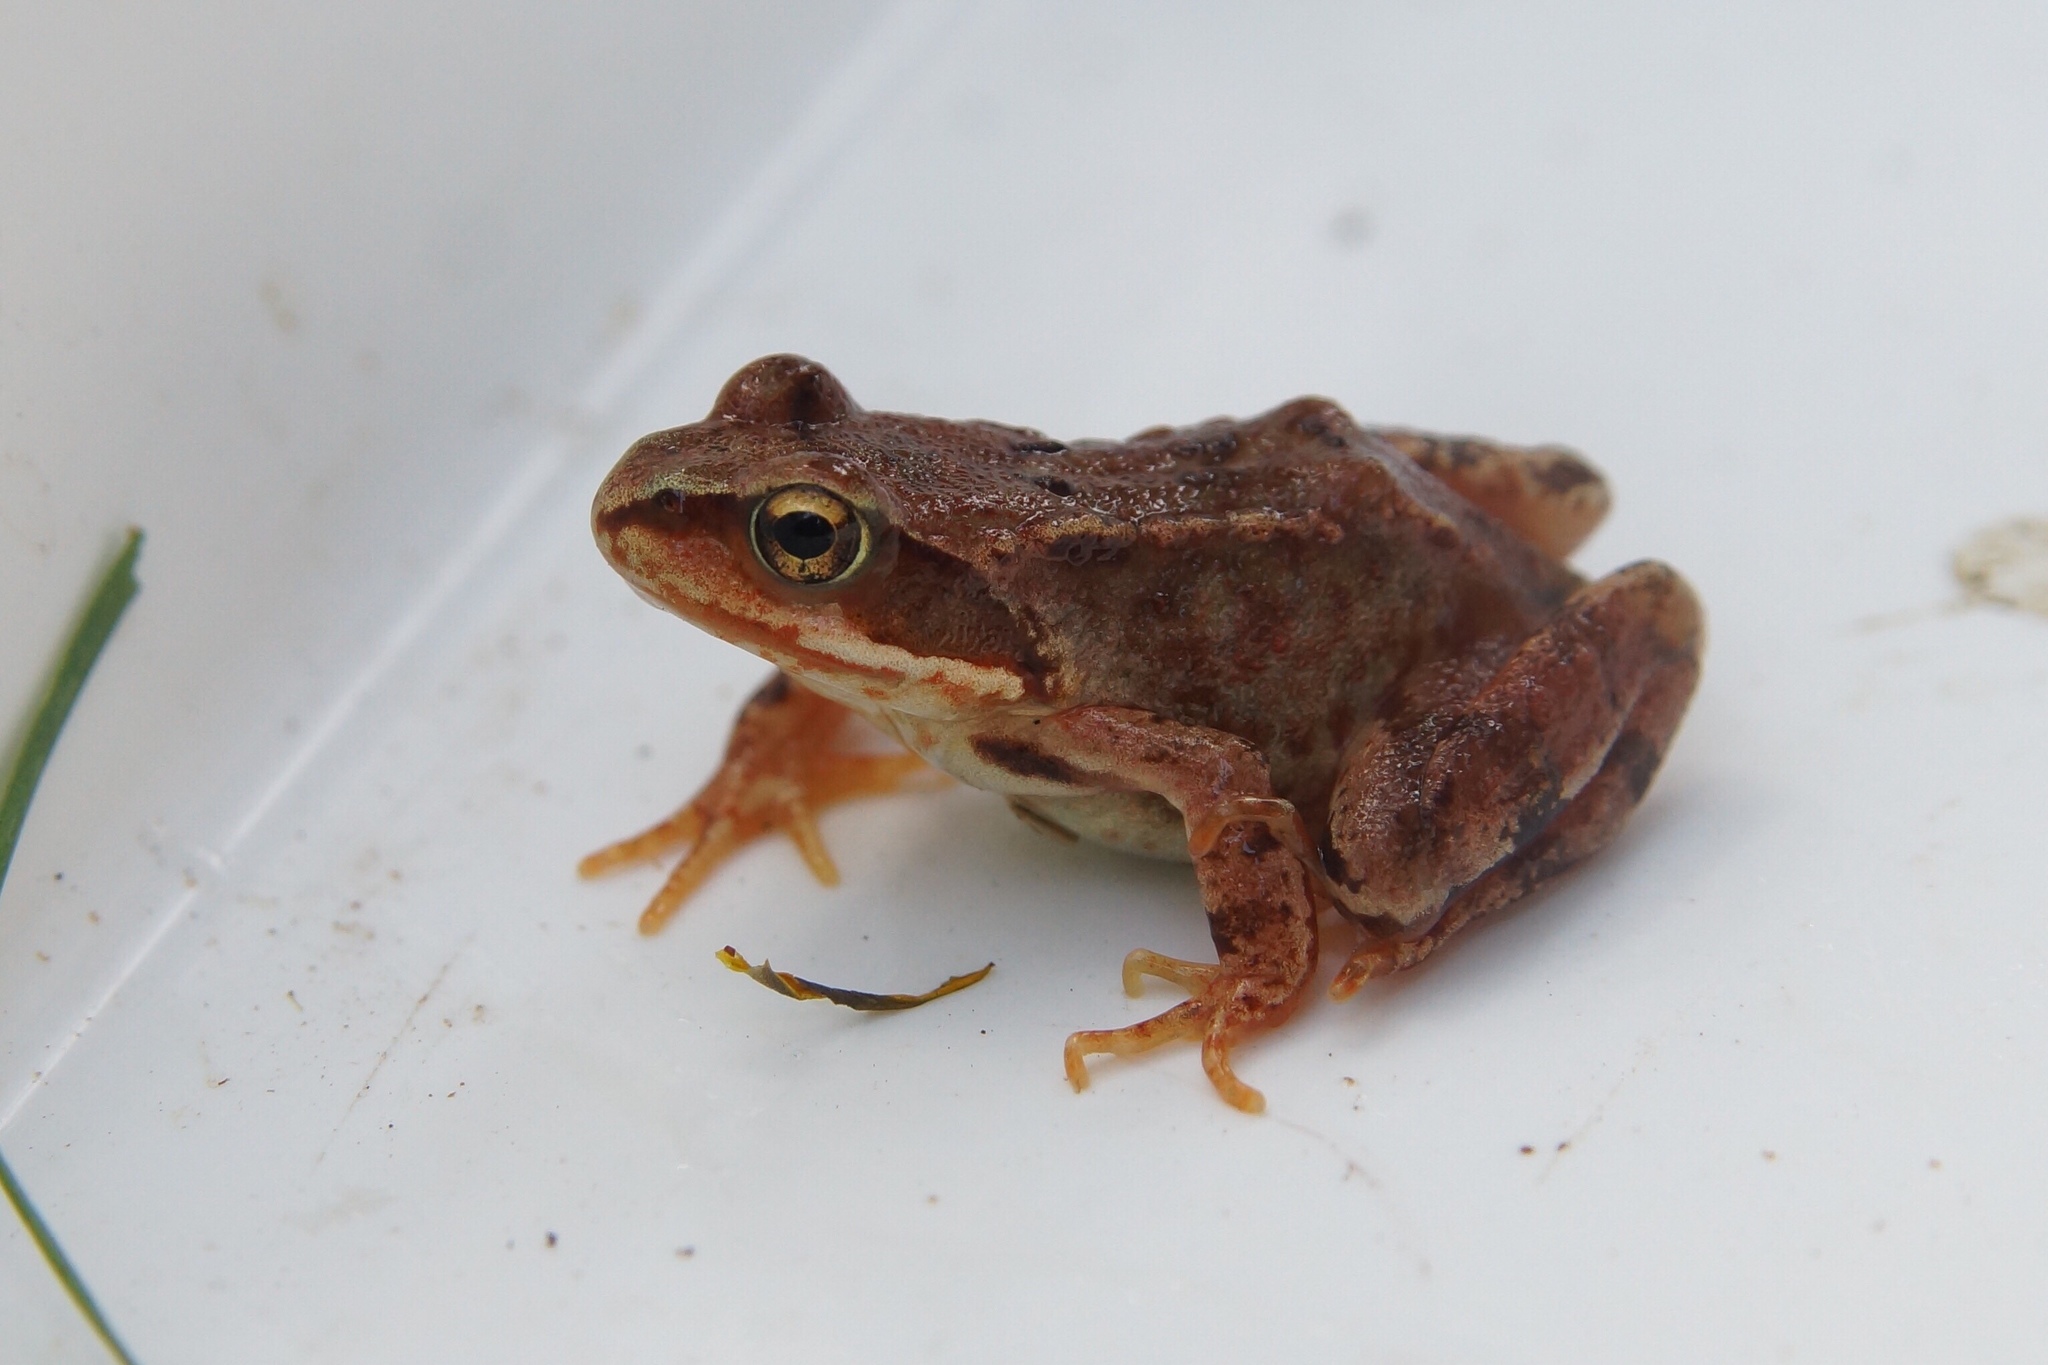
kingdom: Animalia
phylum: Chordata
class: Amphibia
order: Anura
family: Ranidae
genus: Rana
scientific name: Rana temporaria
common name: Common frog
